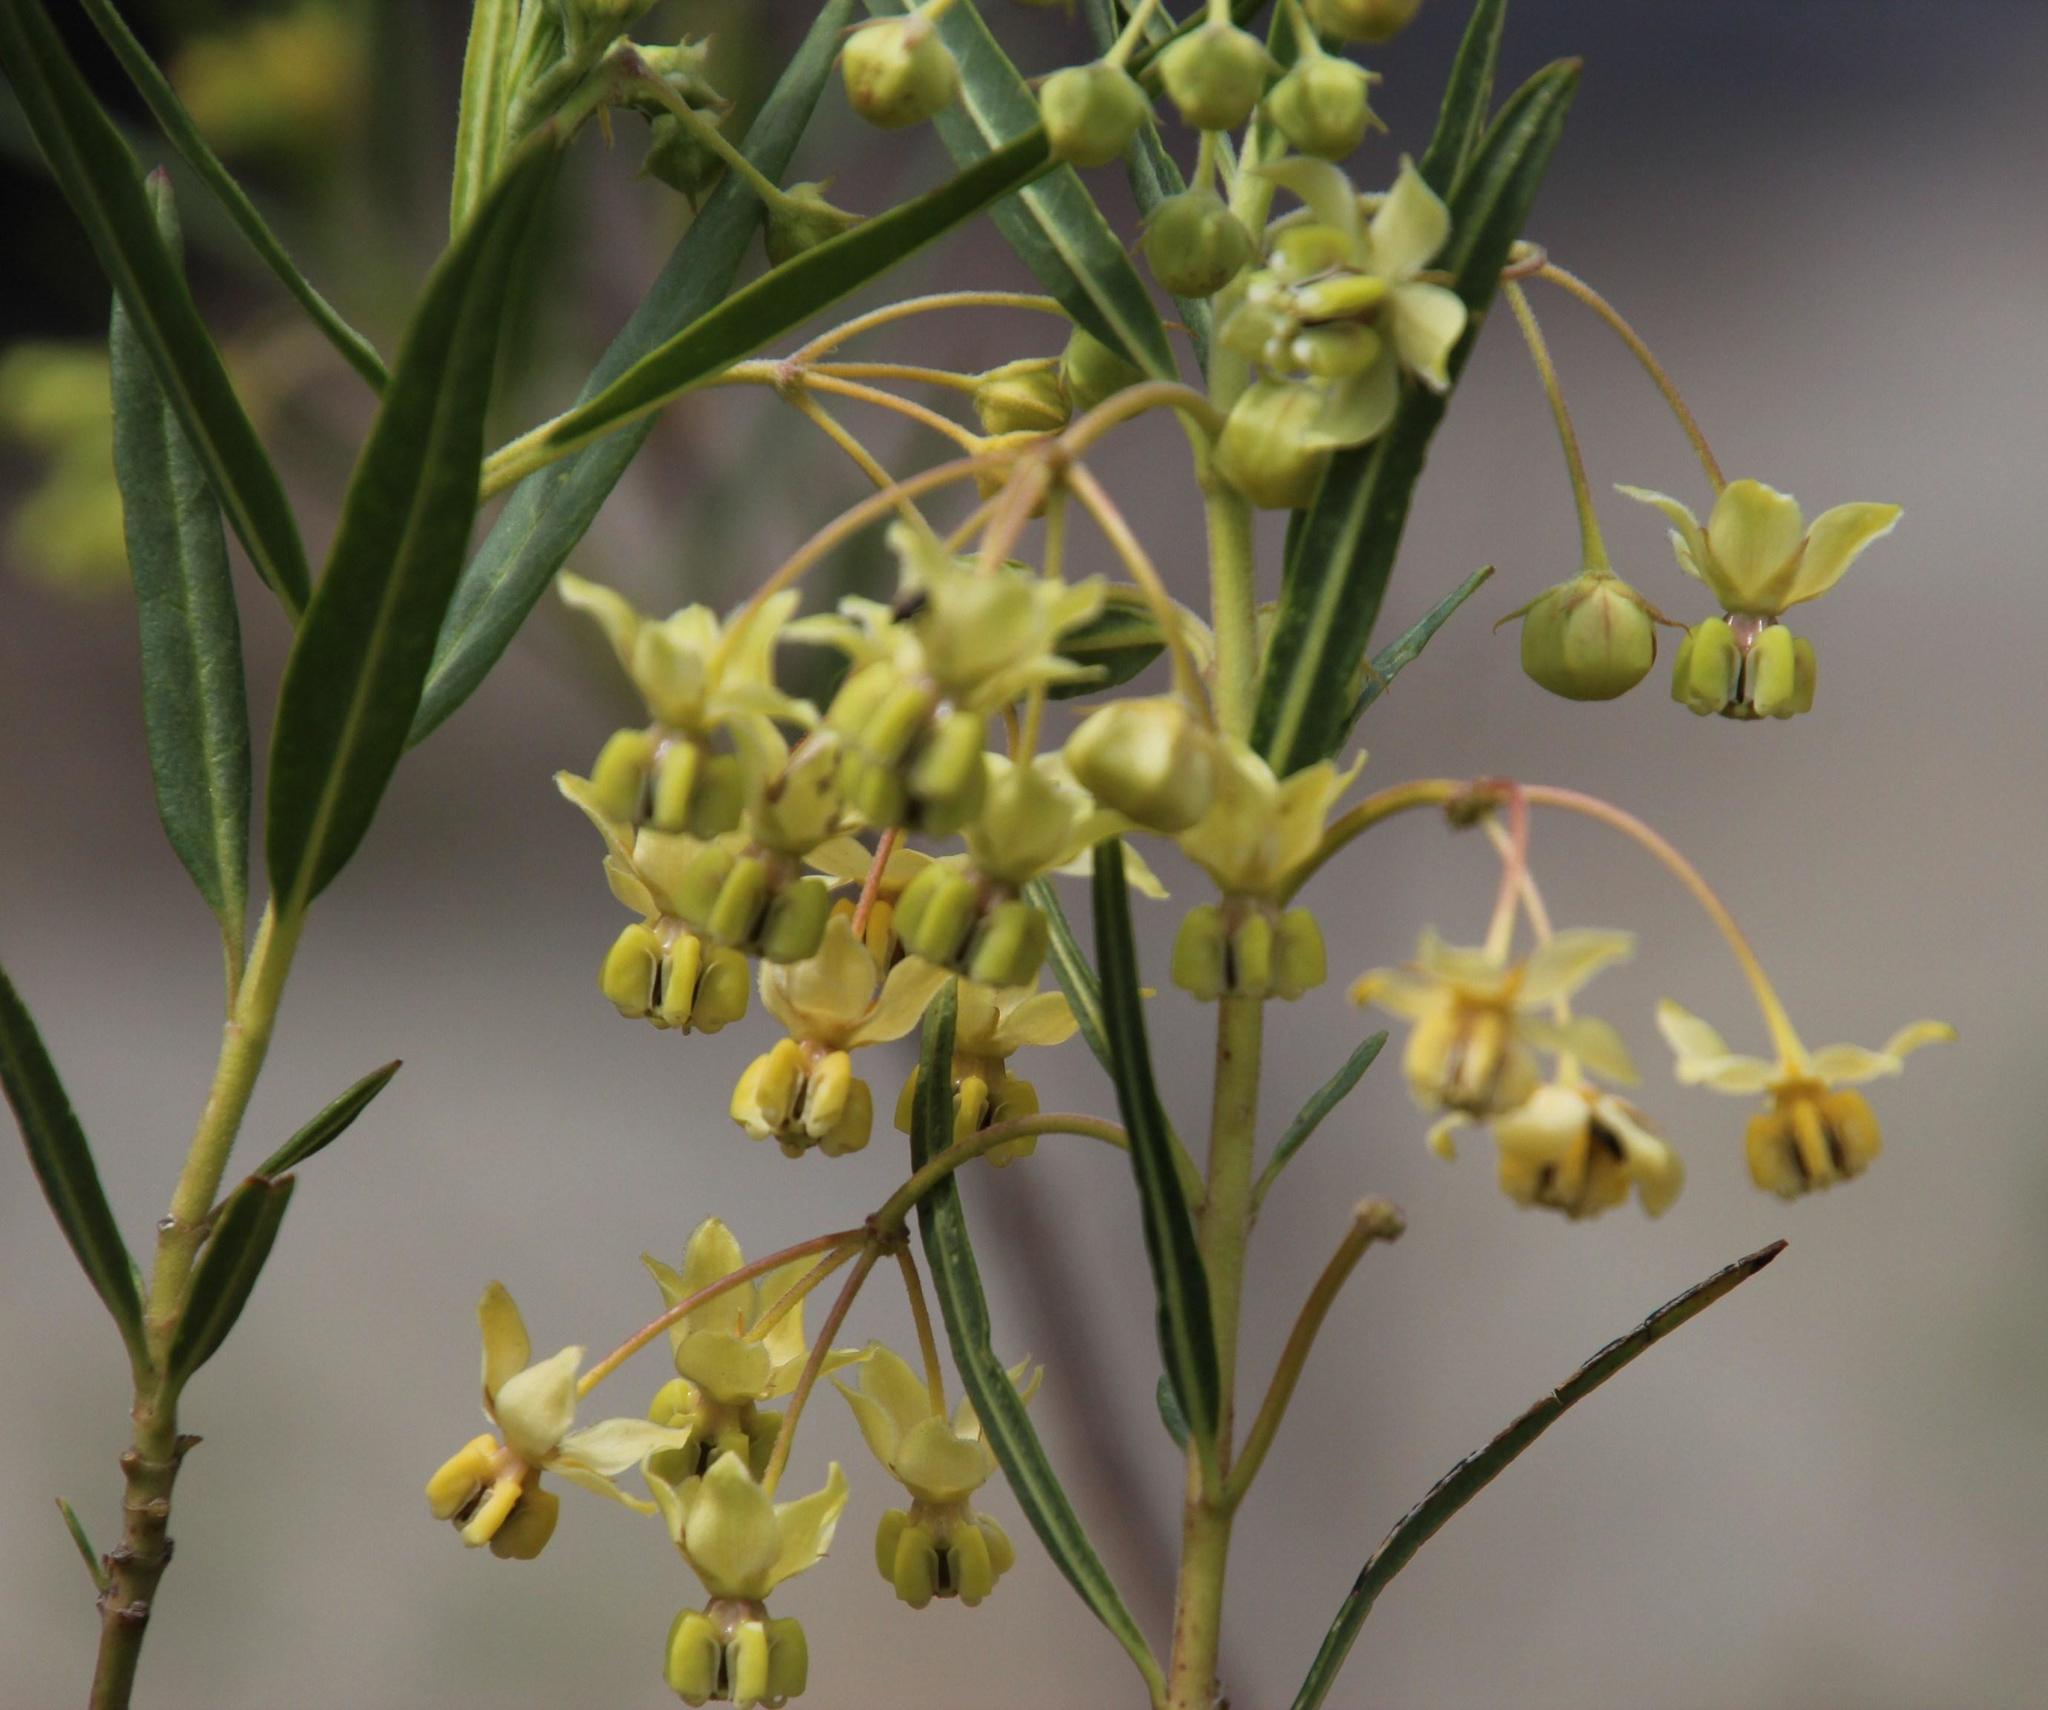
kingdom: Plantae
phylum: Tracheophyta
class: Magnoliopsida
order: Gentianales
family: Apocynaceae
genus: Gomphocarpus
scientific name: Gomphocarpus fruticosus
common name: Milkweed
